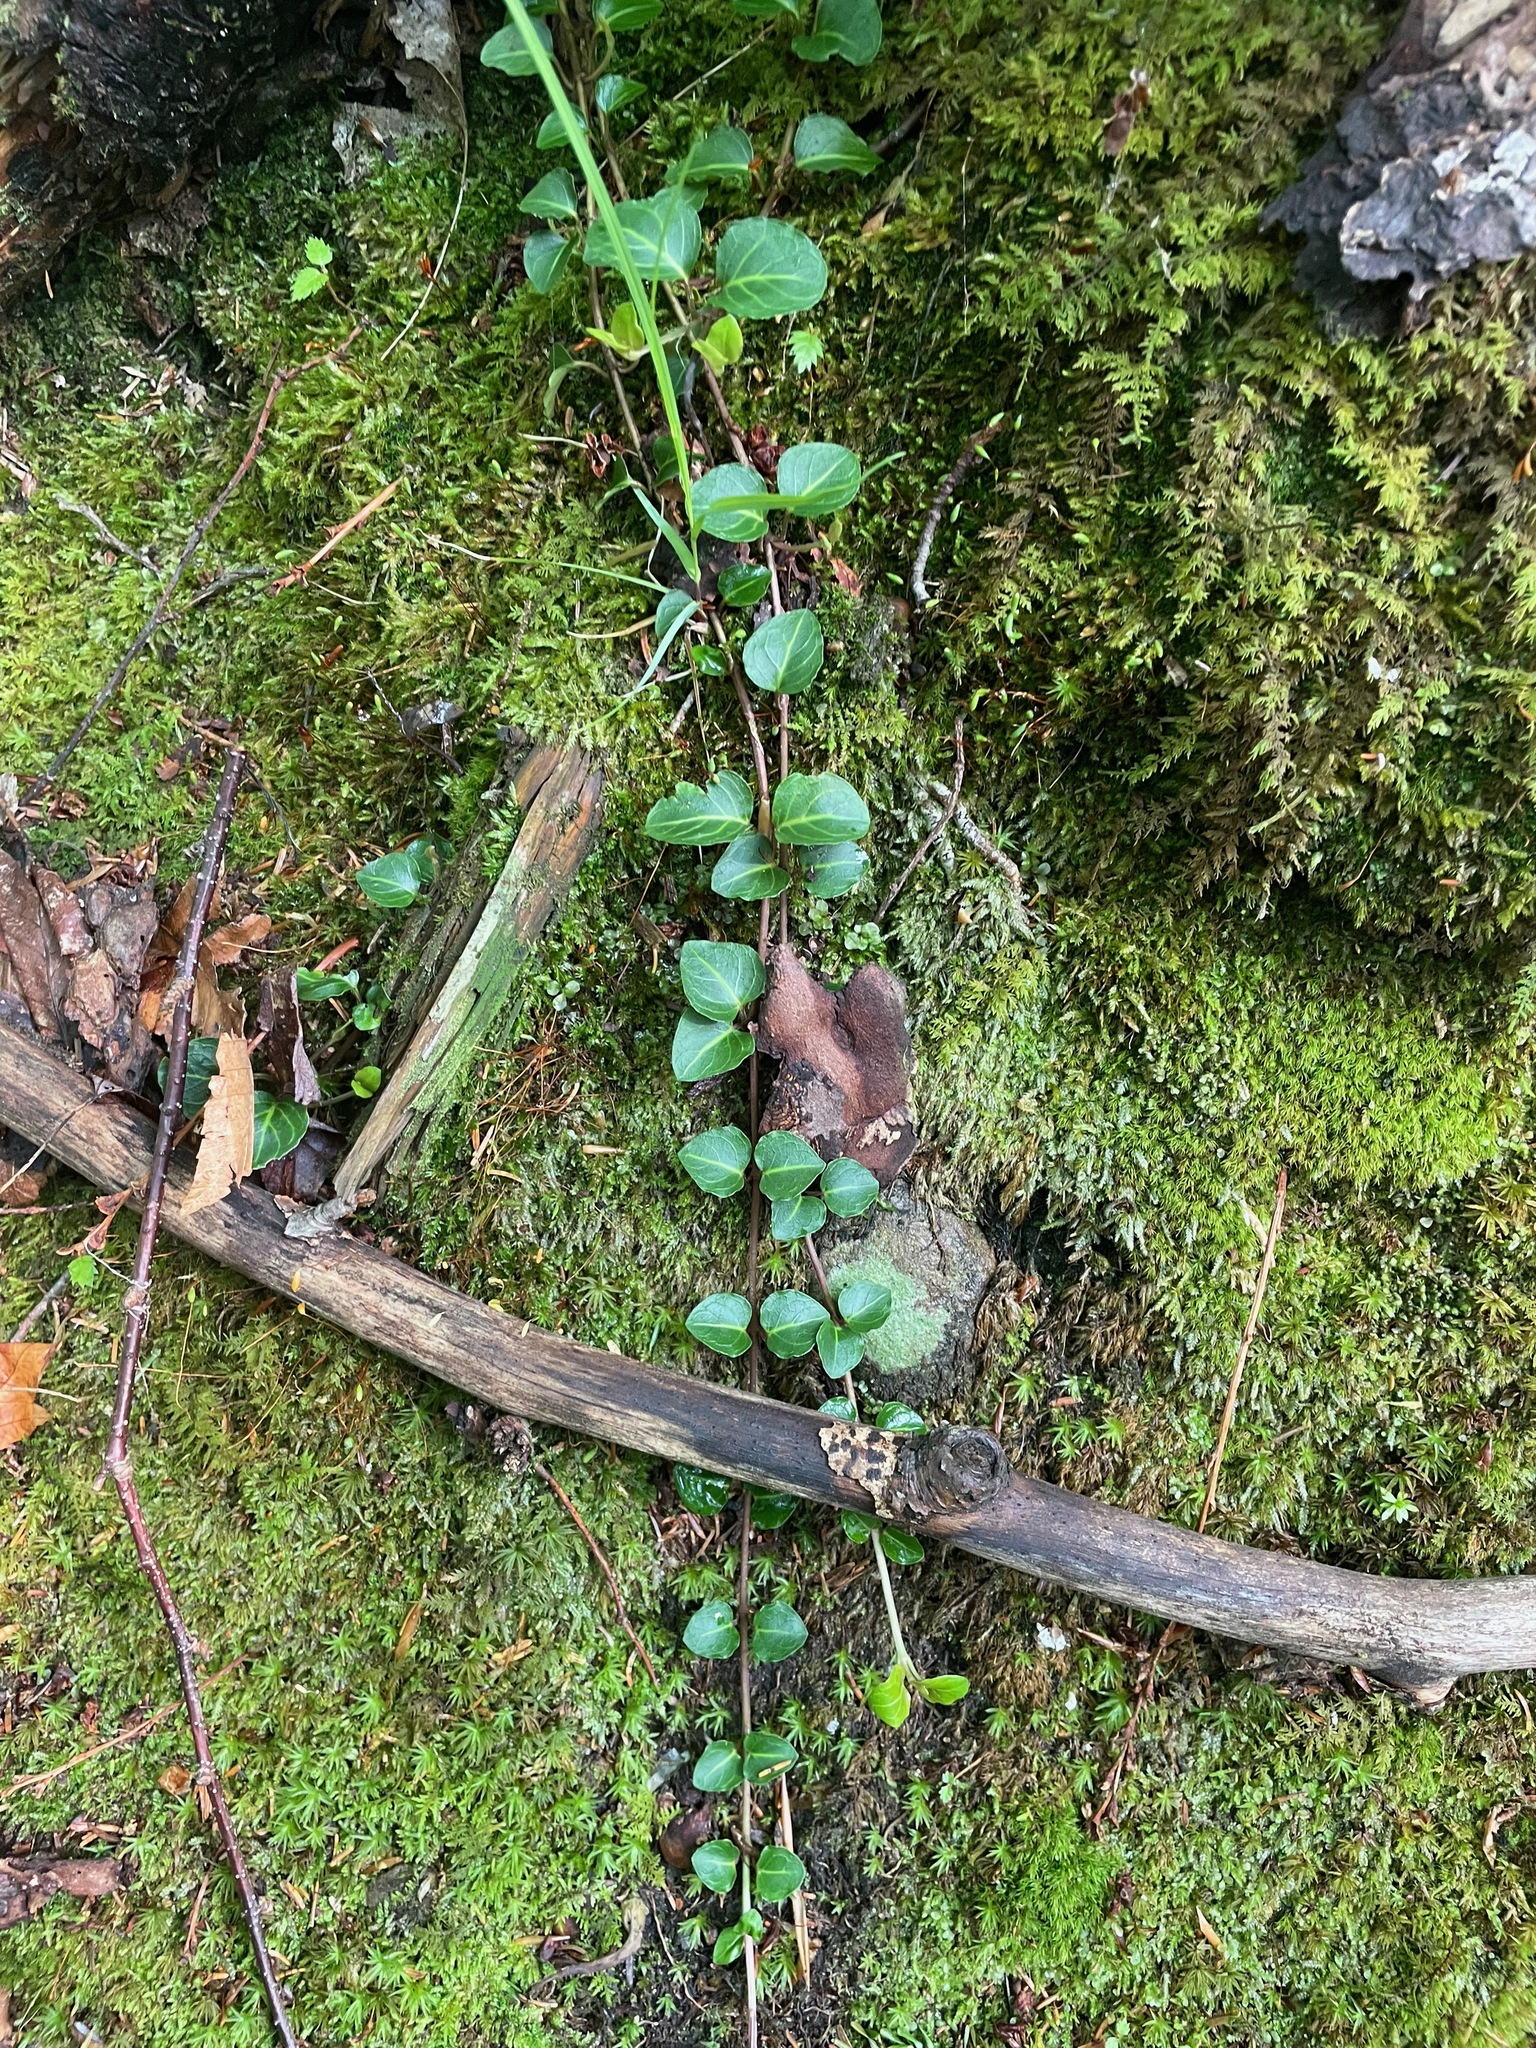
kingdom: Plantae
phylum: Tracheophyta
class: Magnoliopsida
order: Gentianales
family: Rubiaceae
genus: Mitchella
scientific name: Mitchella repens
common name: Partridge-berry
